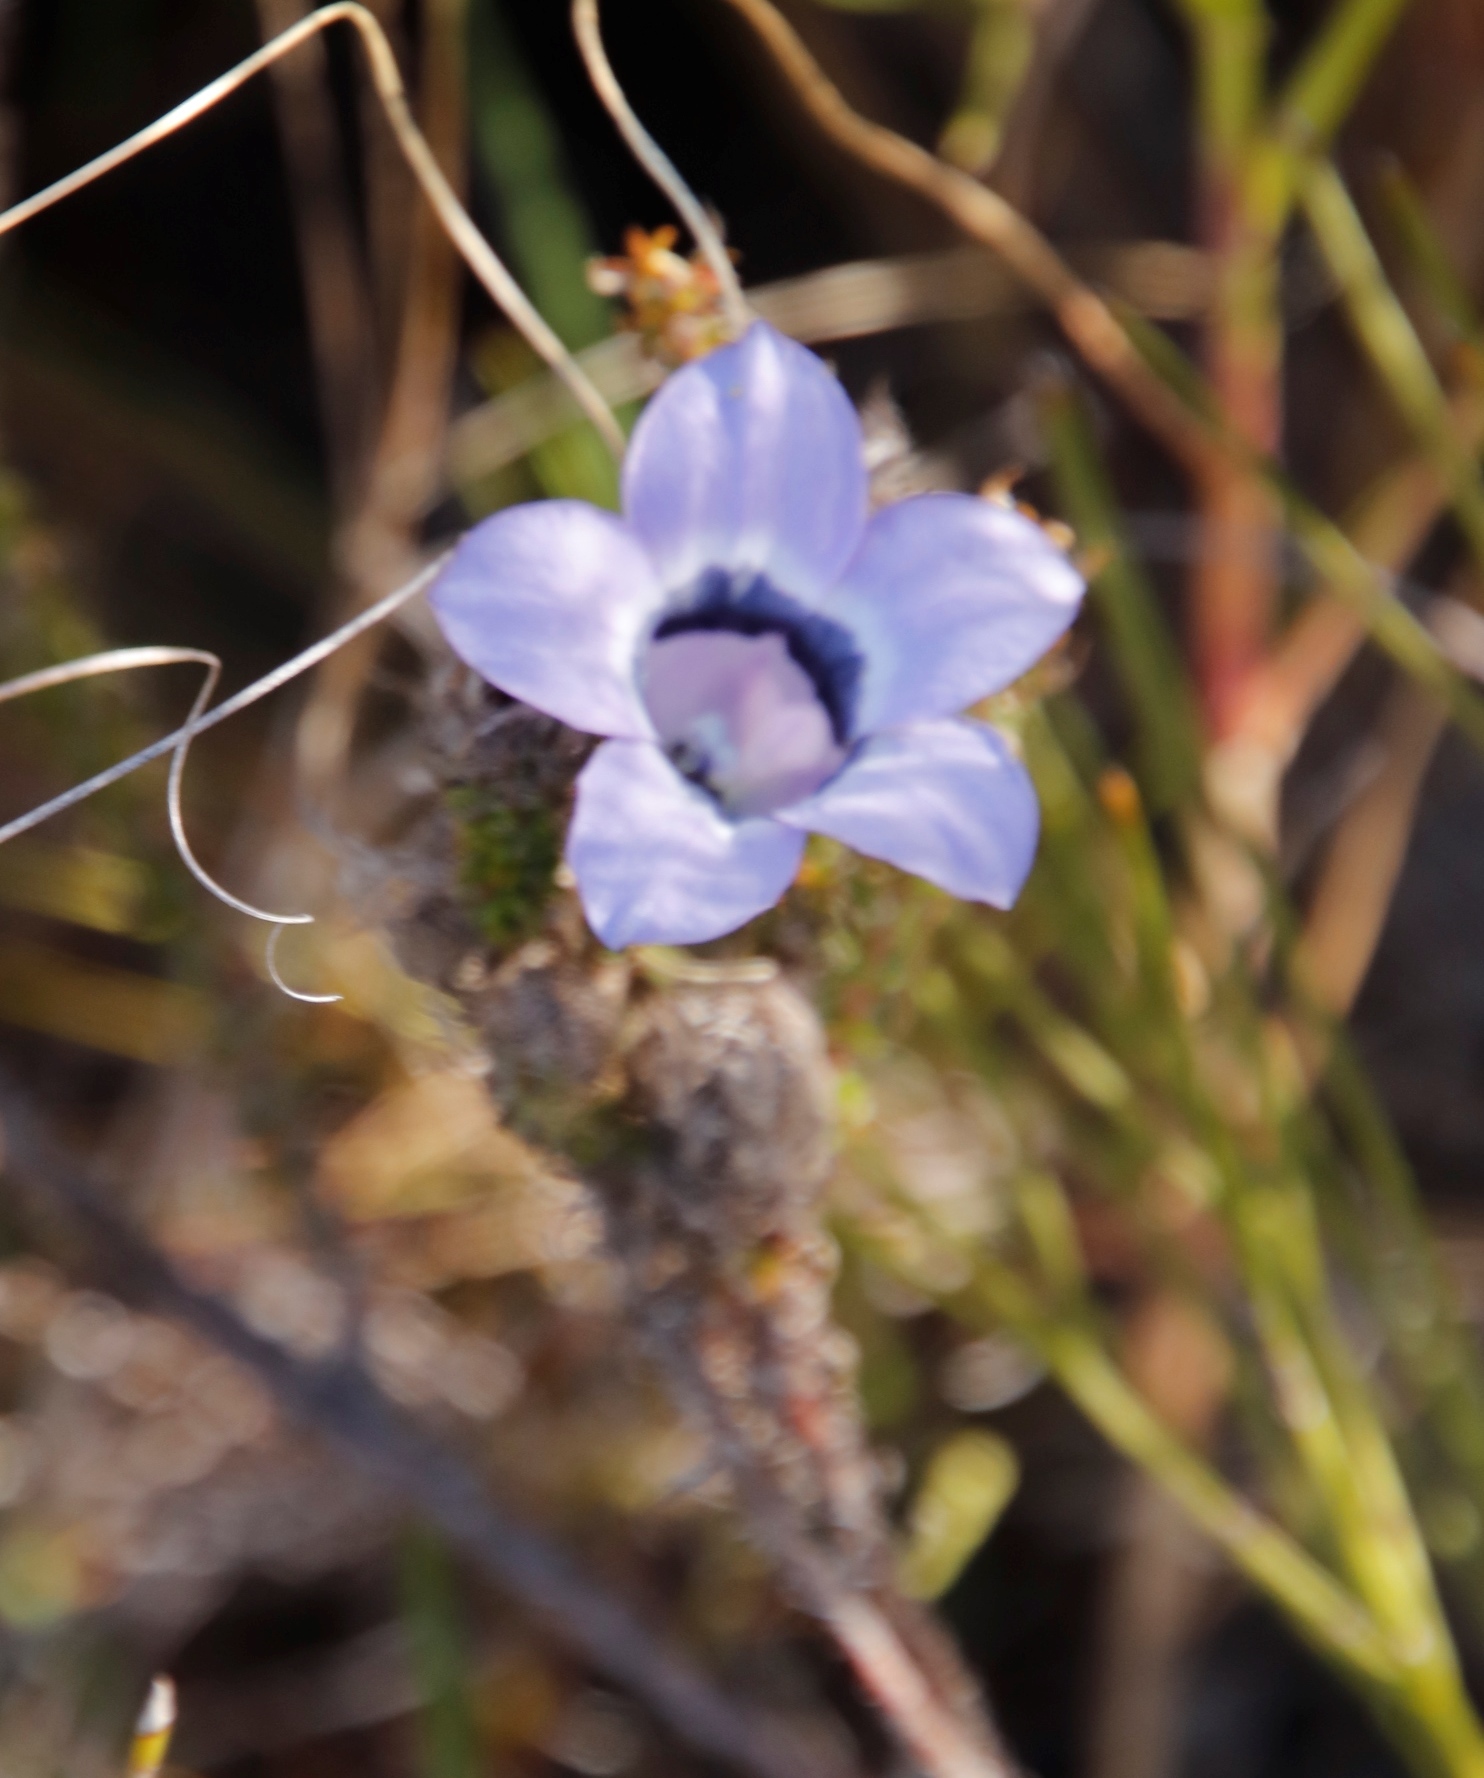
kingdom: Plantae
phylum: Tracheophyta
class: Magnoliopsida
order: Asterales
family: Campanulaceae
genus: Roella
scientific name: Roella ciliata
